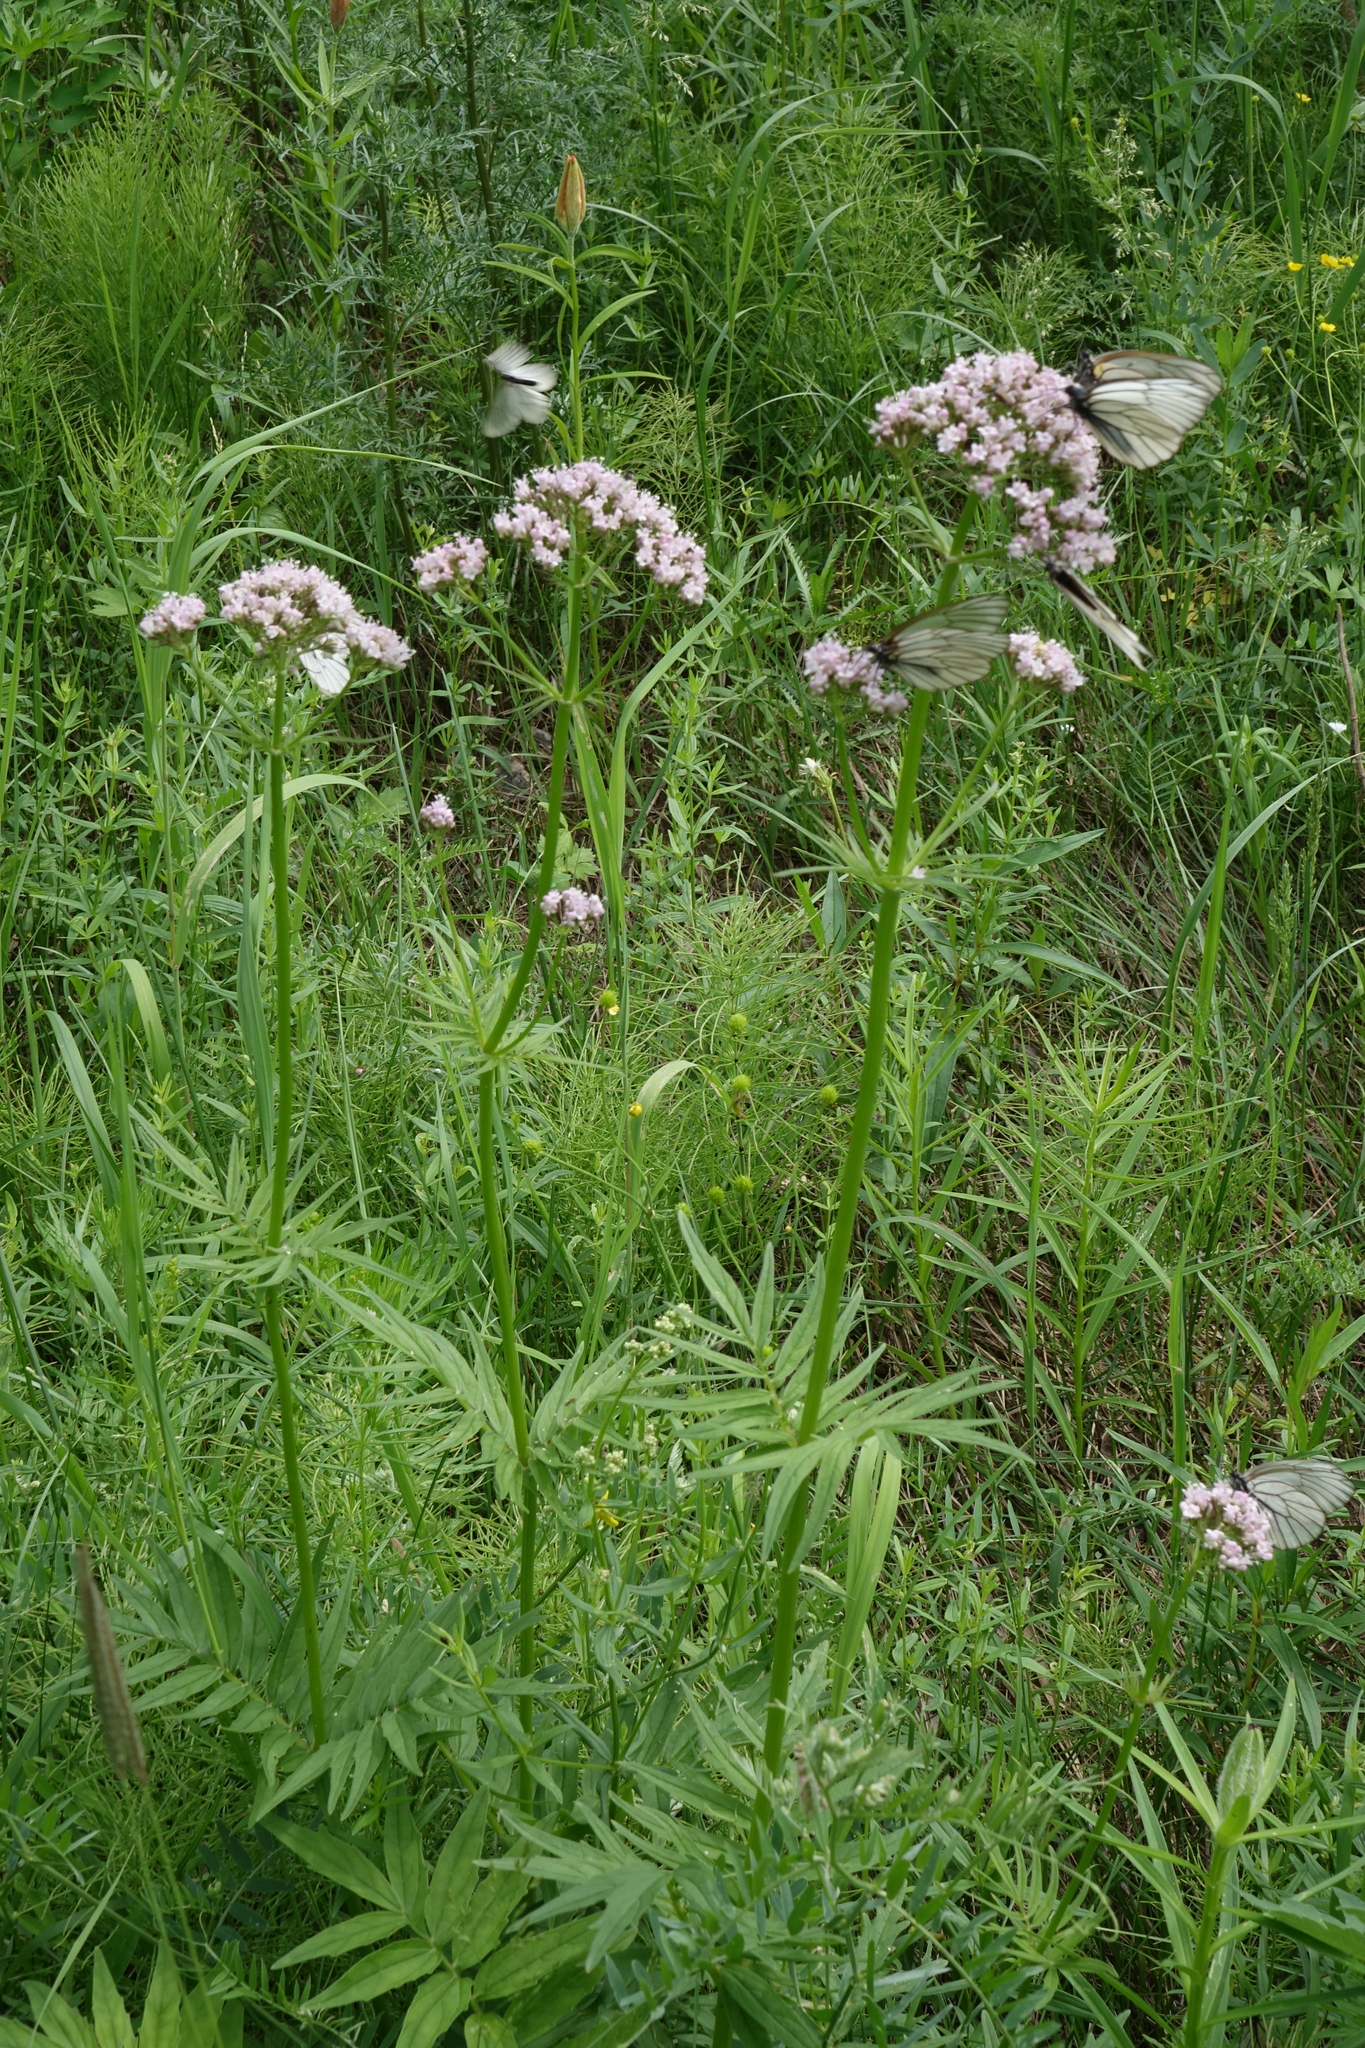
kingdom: Plantae
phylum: Tracheophyta
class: Magnoliopsida
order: Dipsacales
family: Caprifoliaceae
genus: Valeriana
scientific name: Valeriana transjenisensis
